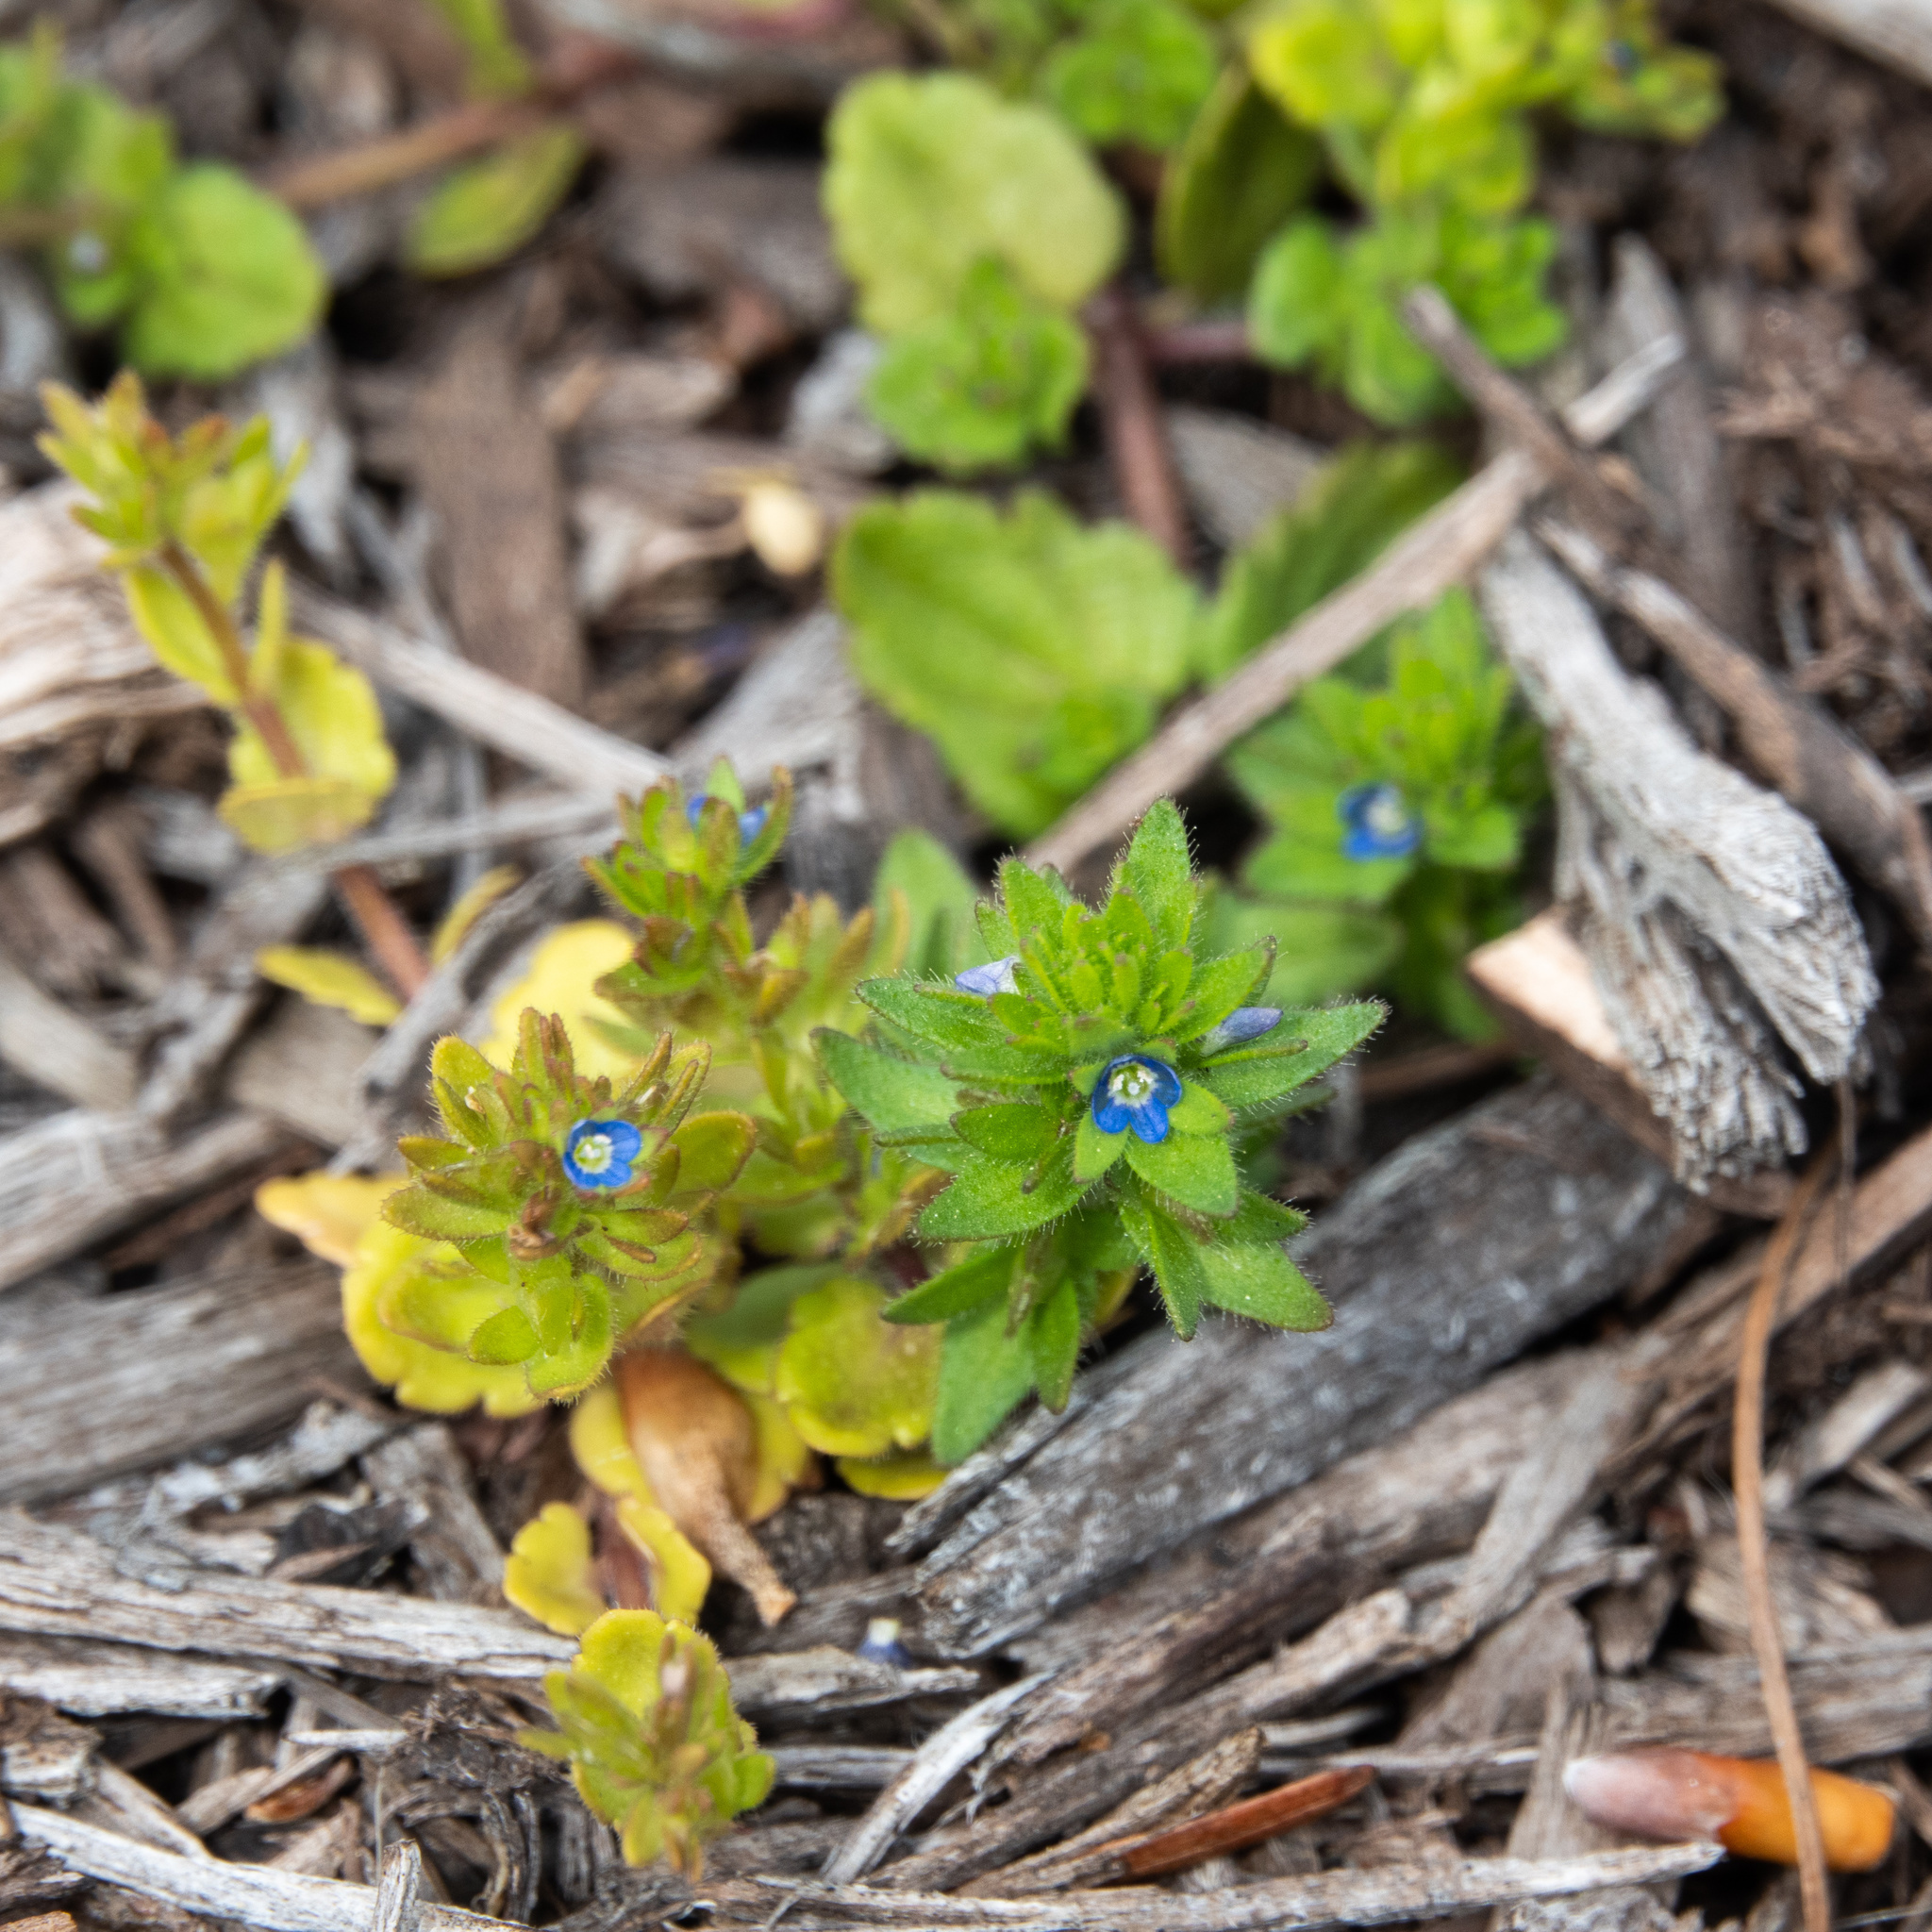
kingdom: Plantae
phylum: Tracheophyta
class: Magnoliopsida
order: Lamiales
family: Plantaginaceae
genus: Veronica
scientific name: Veronica arvensis
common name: Corn speedwell
